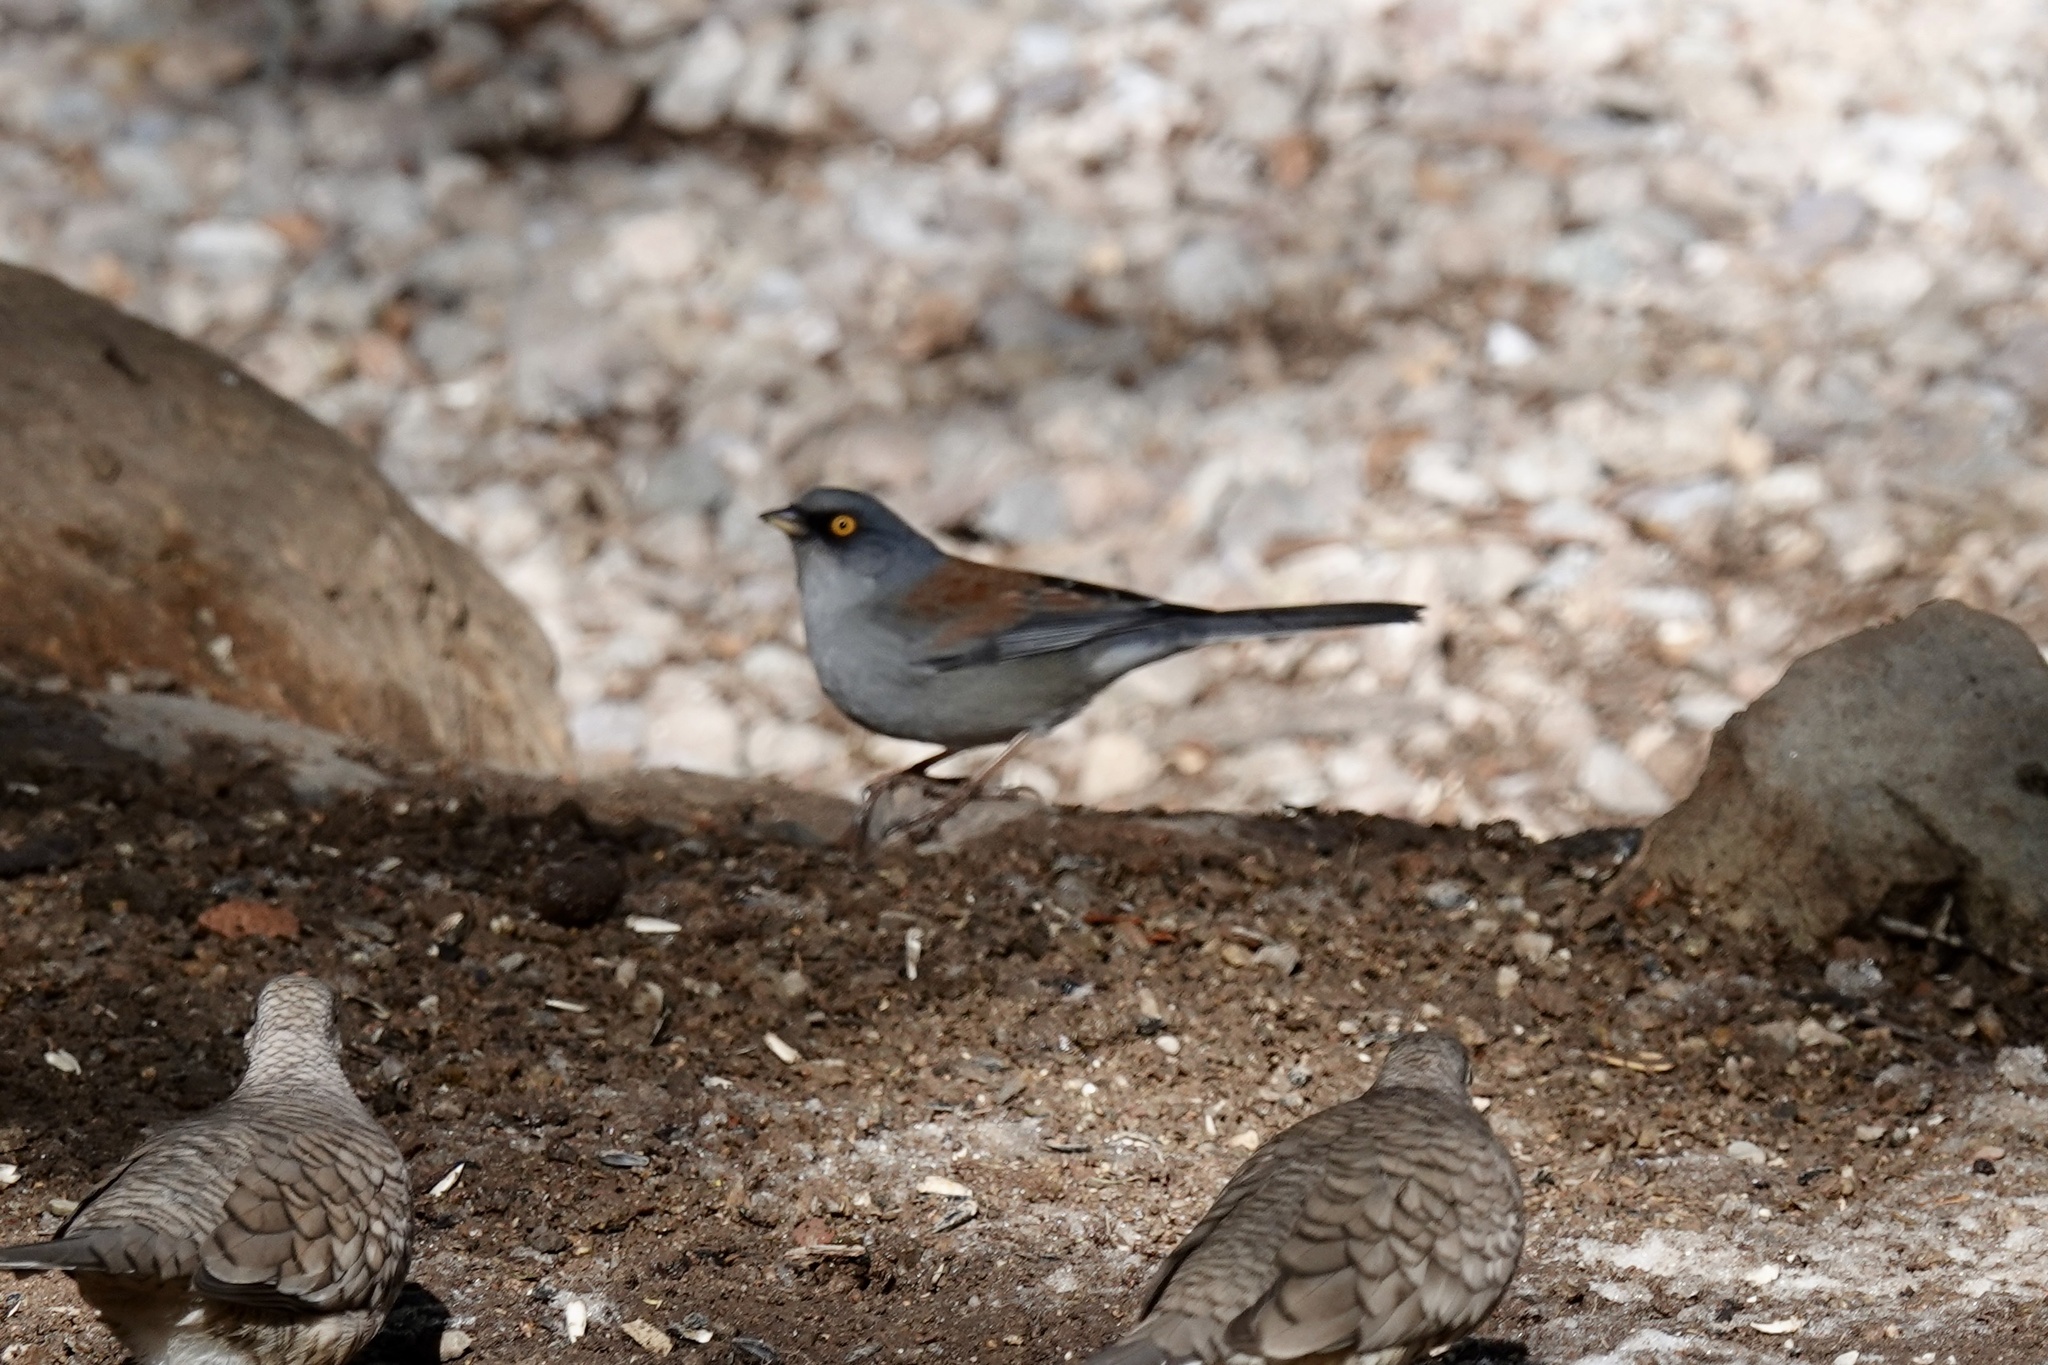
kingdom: Animalia
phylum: Chordata
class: Aves
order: Passeriformes
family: Passerellidae
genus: Junco
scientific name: Junco phaeonotus
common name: Yellow-eyed junco
